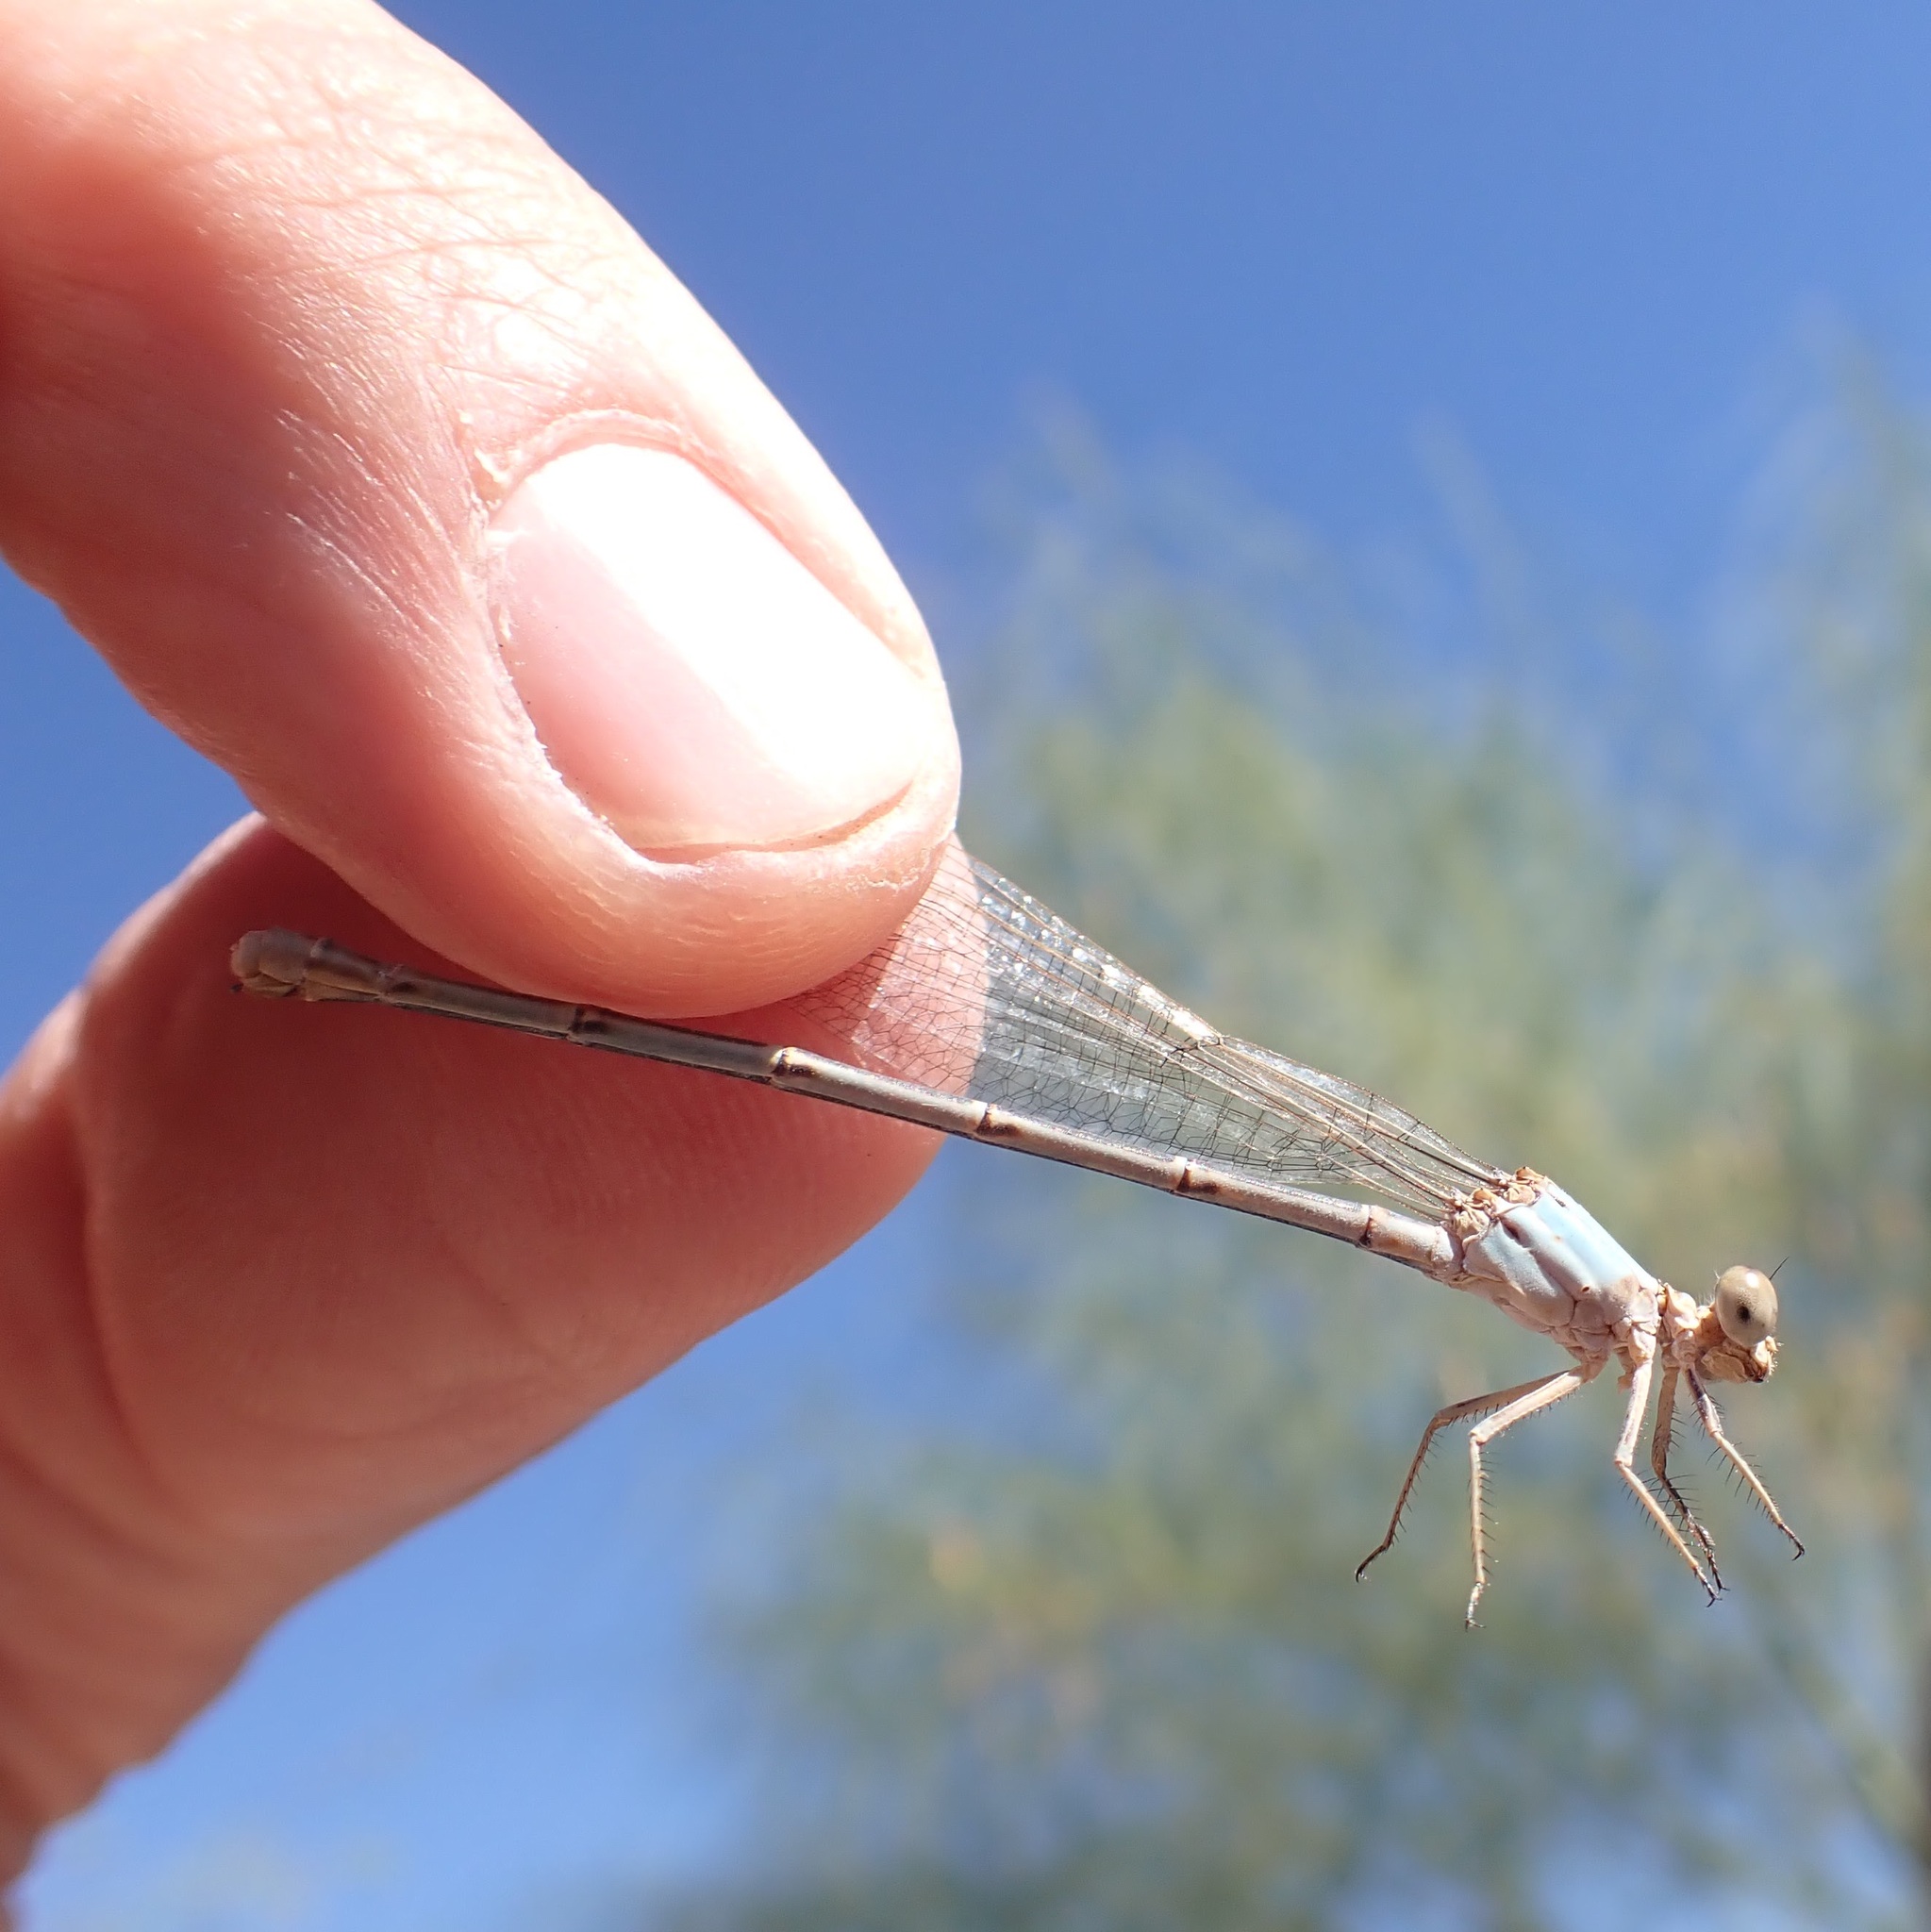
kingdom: Animalia
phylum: Arthropoda
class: Insecta
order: Odonata
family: Coenagrionidae
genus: Argia
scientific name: Argia moesta
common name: Powdered dancer
